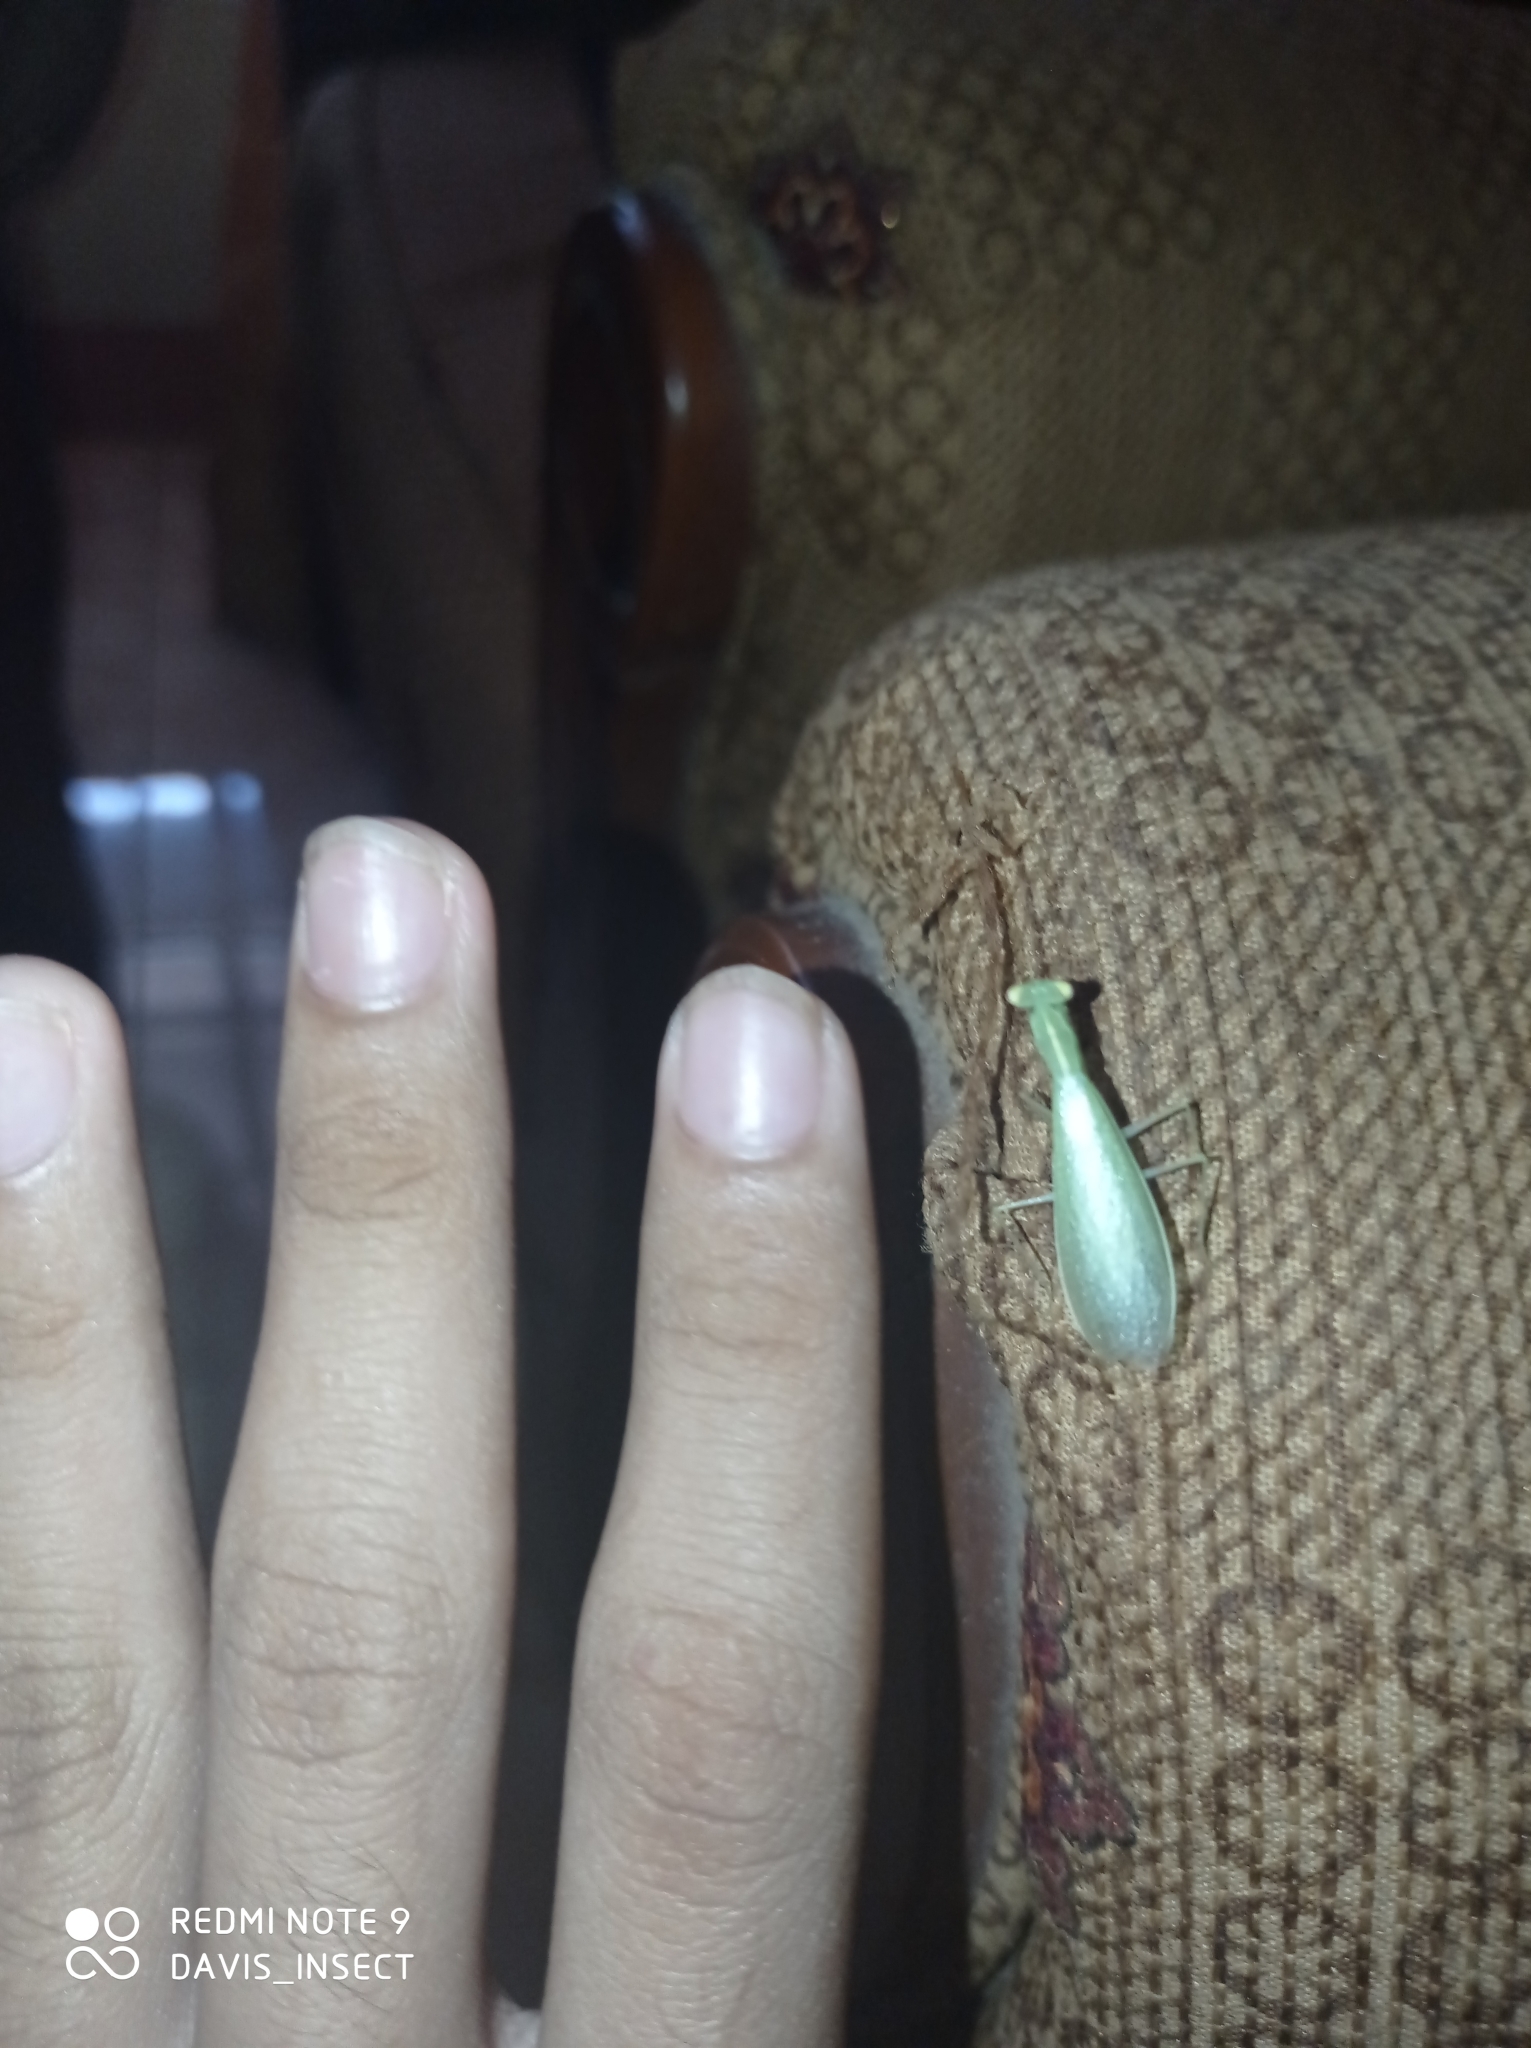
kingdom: Animalia
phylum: Arthropoda
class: Insecta
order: Mantodea
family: Nanomantidae
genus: Tropidomantis
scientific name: Tropidomantis tenera
